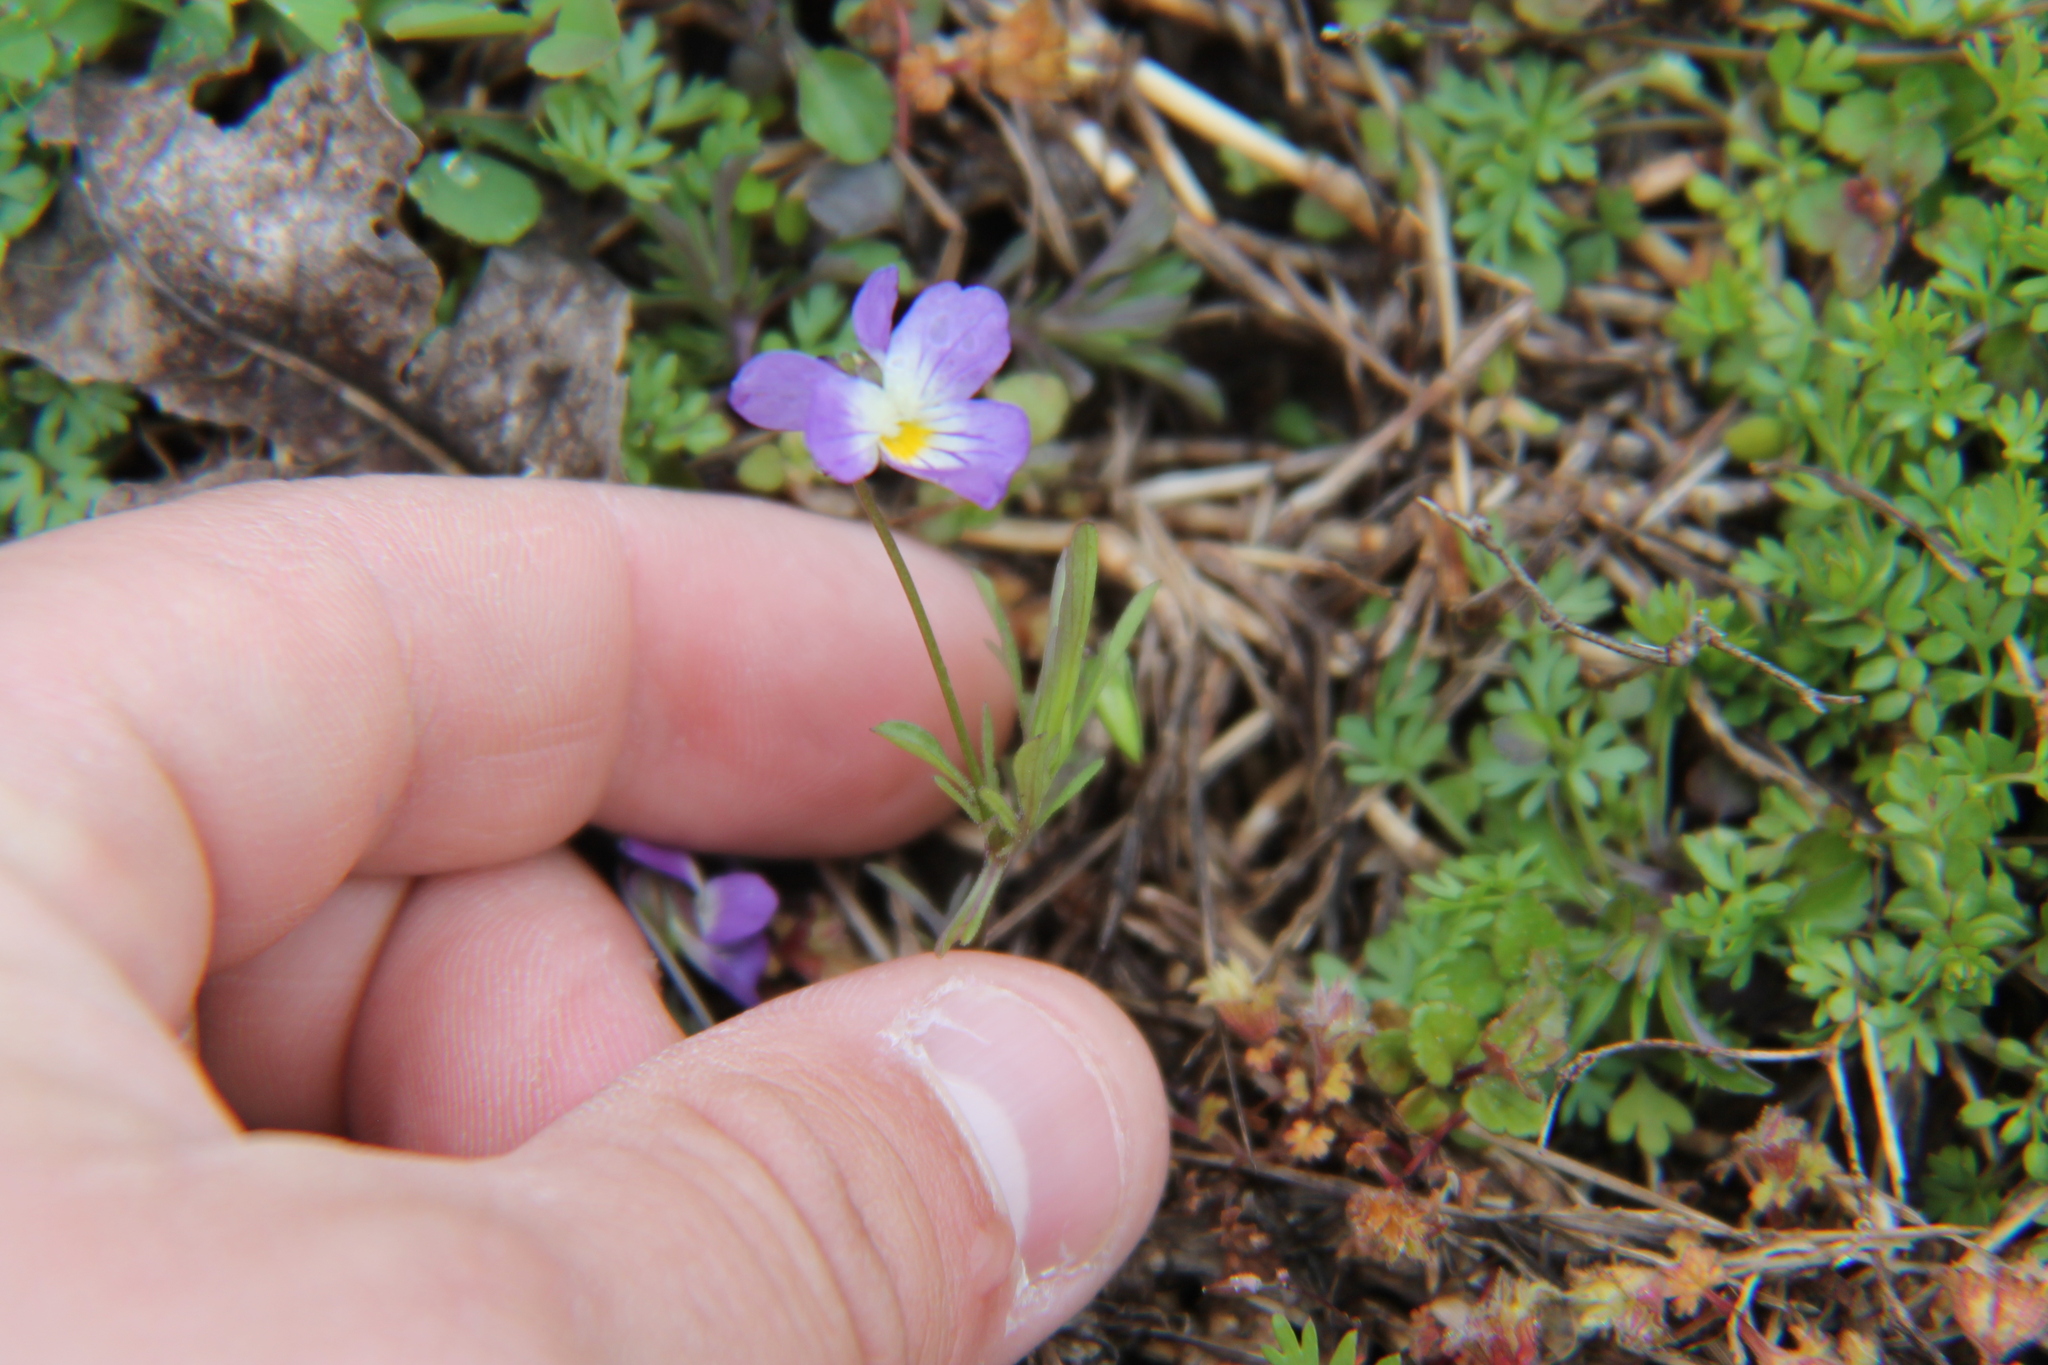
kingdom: Plantae
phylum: Tracheophyta
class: Magnoliopsida
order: Malpighiales
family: Violaceae
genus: Viola
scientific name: Viola rafinesquei
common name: American field pansy
